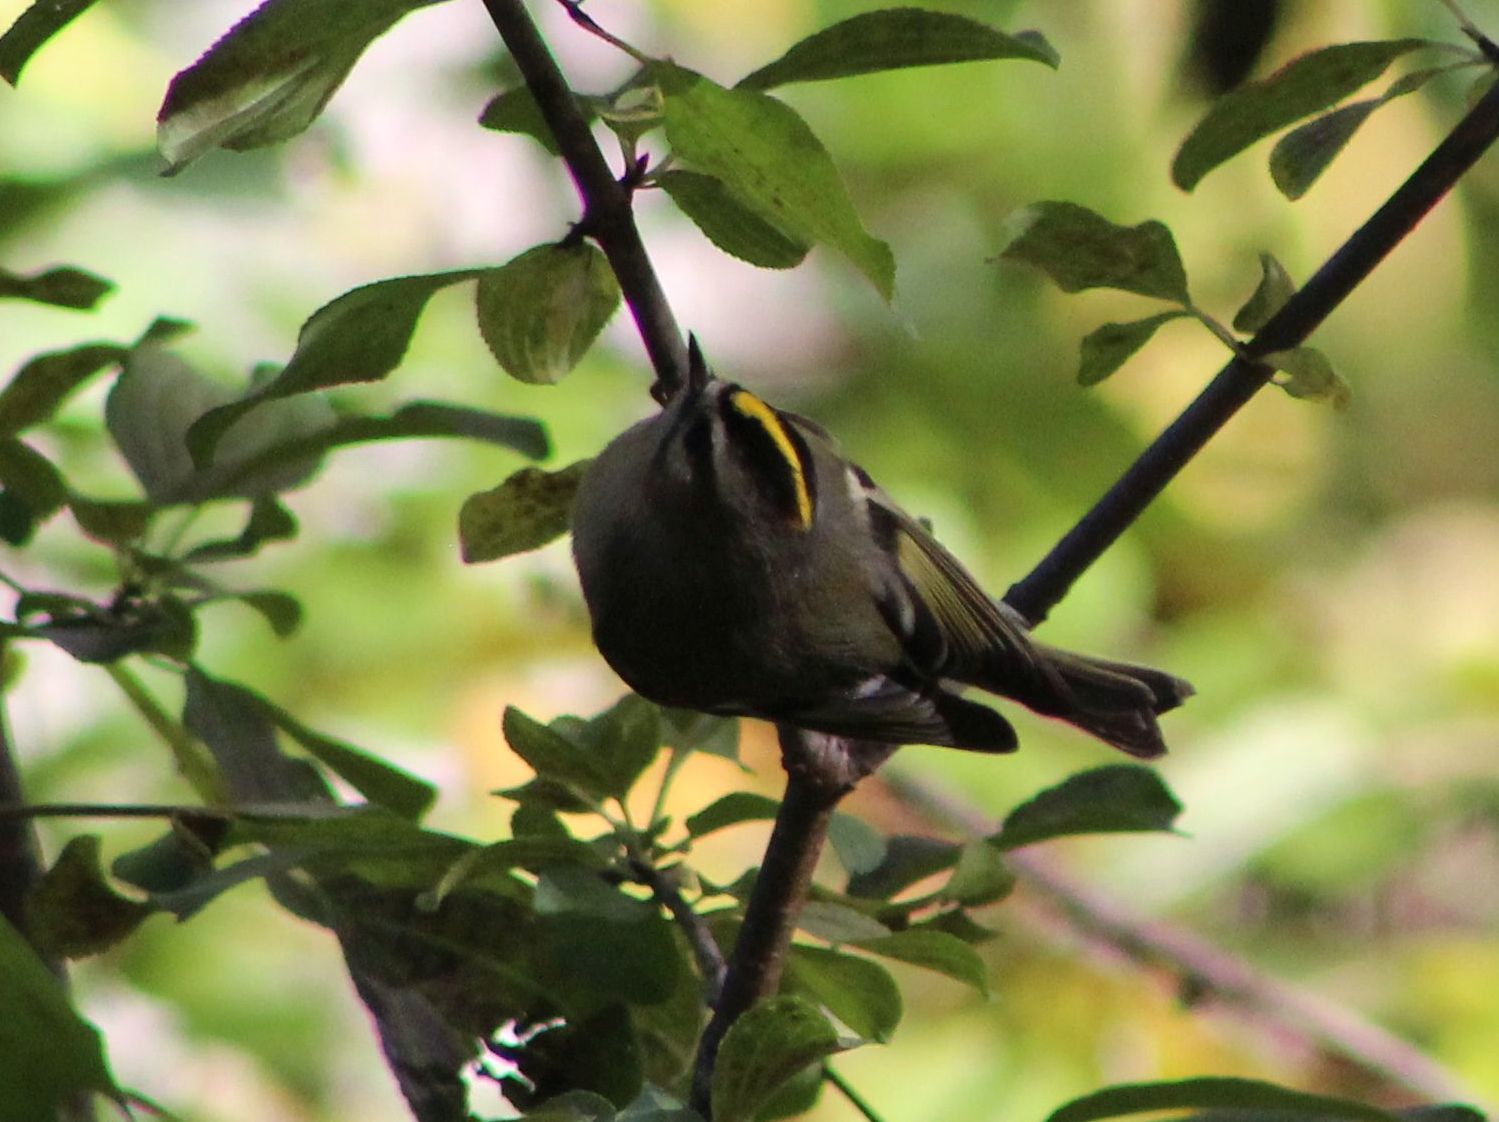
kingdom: Animalia
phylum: Chordata
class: Aves
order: Passeriformes
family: Regulidae
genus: Regulus
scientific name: Regulus satrapa
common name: Golden-crowned kinglet
